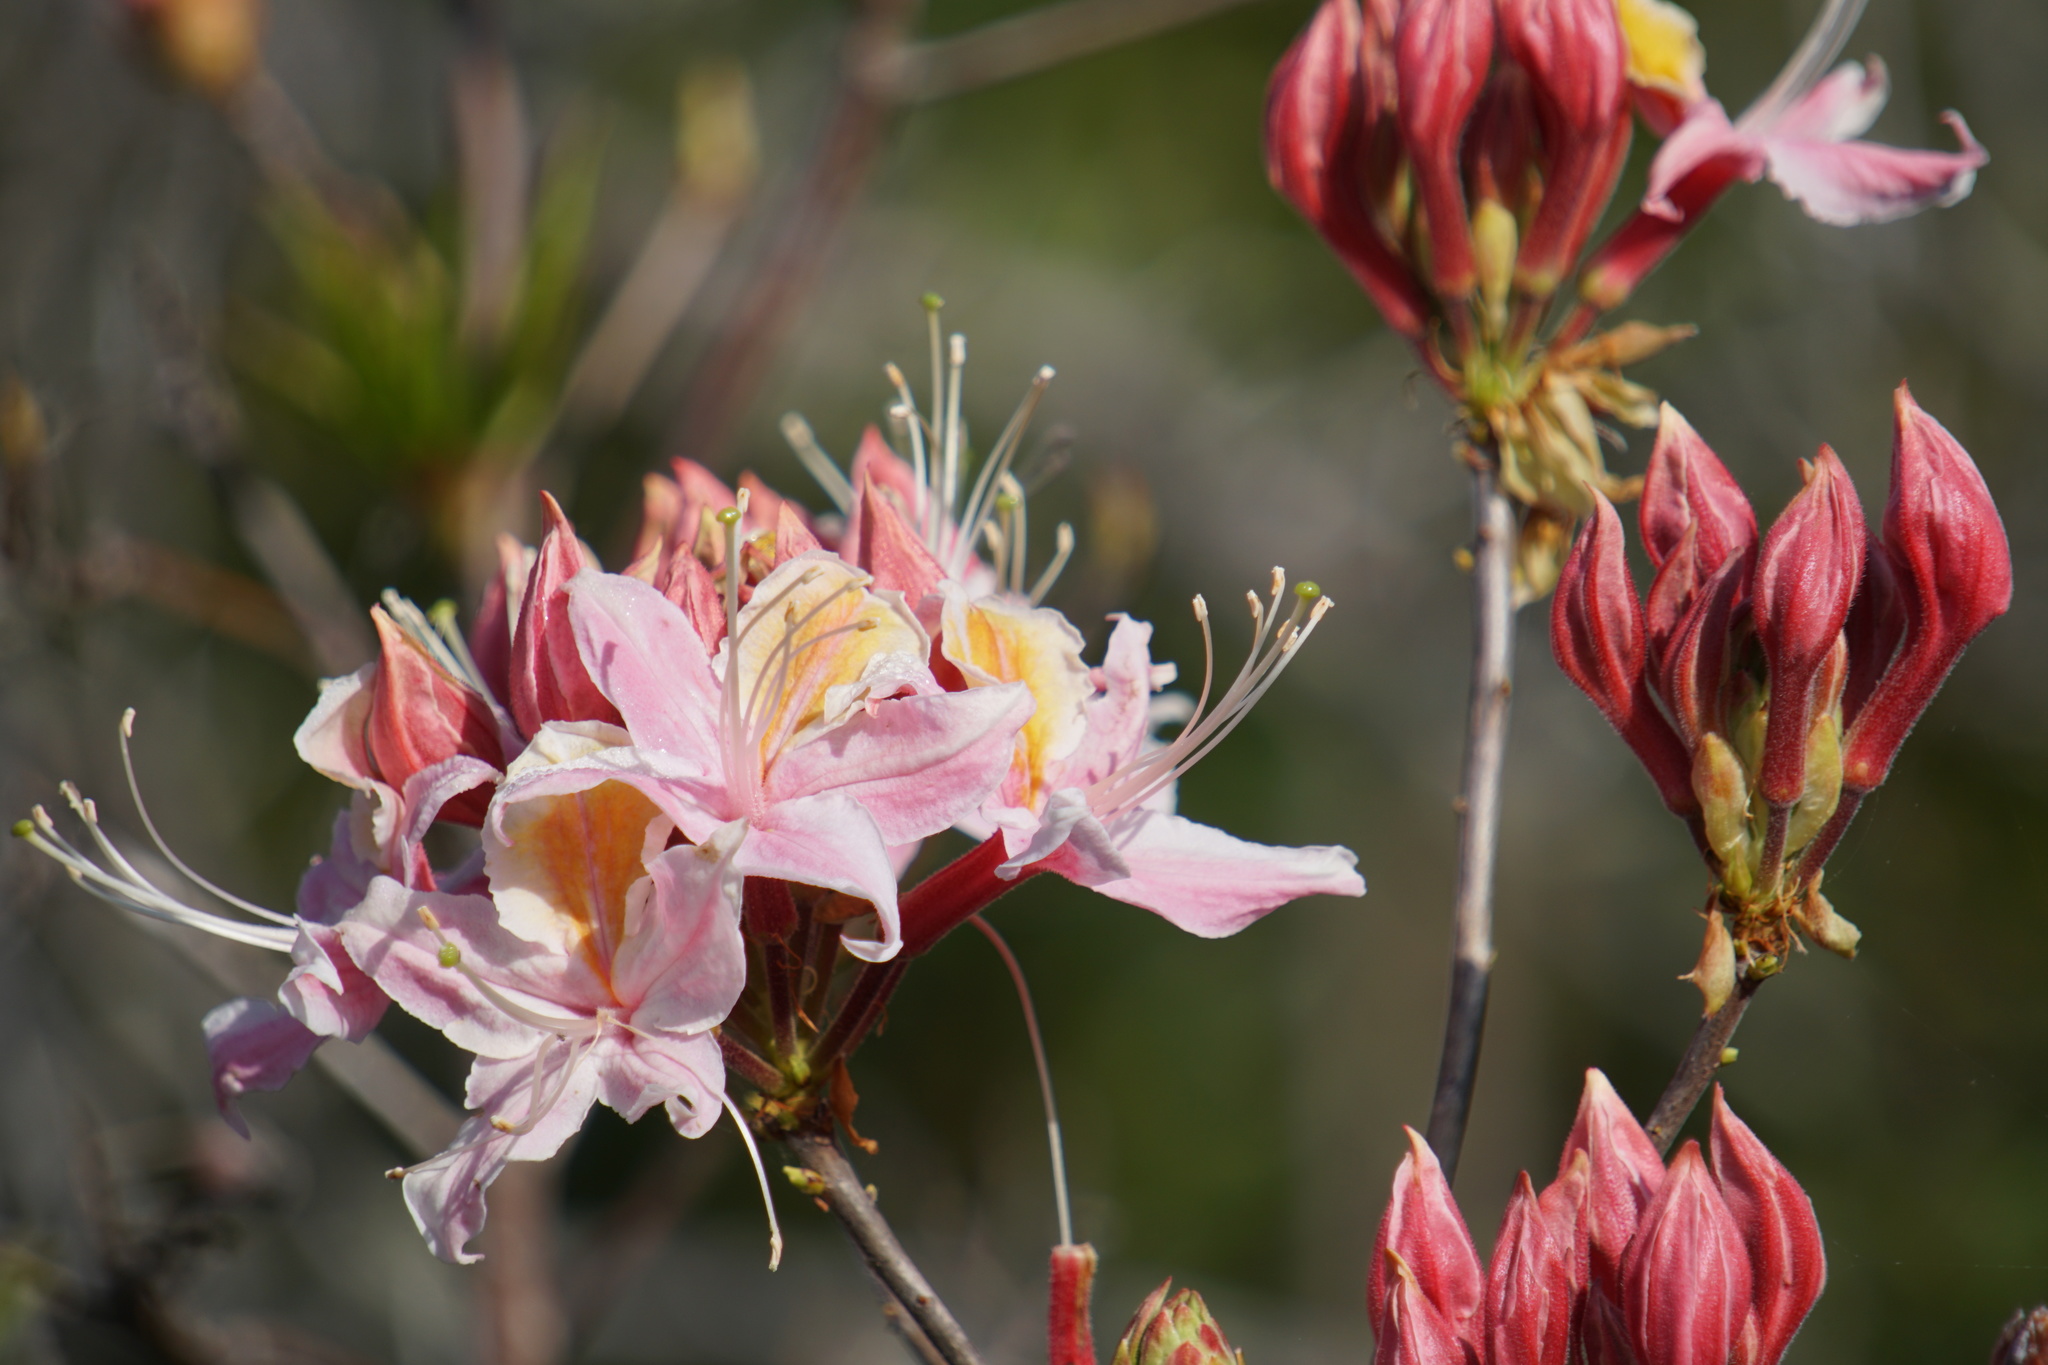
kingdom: Plantae
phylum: Tracheophyta
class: Magnoliopsida
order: Ericales
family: Ericaceae
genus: Rhododendron
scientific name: Rhododendron occidentale
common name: Western azalea
